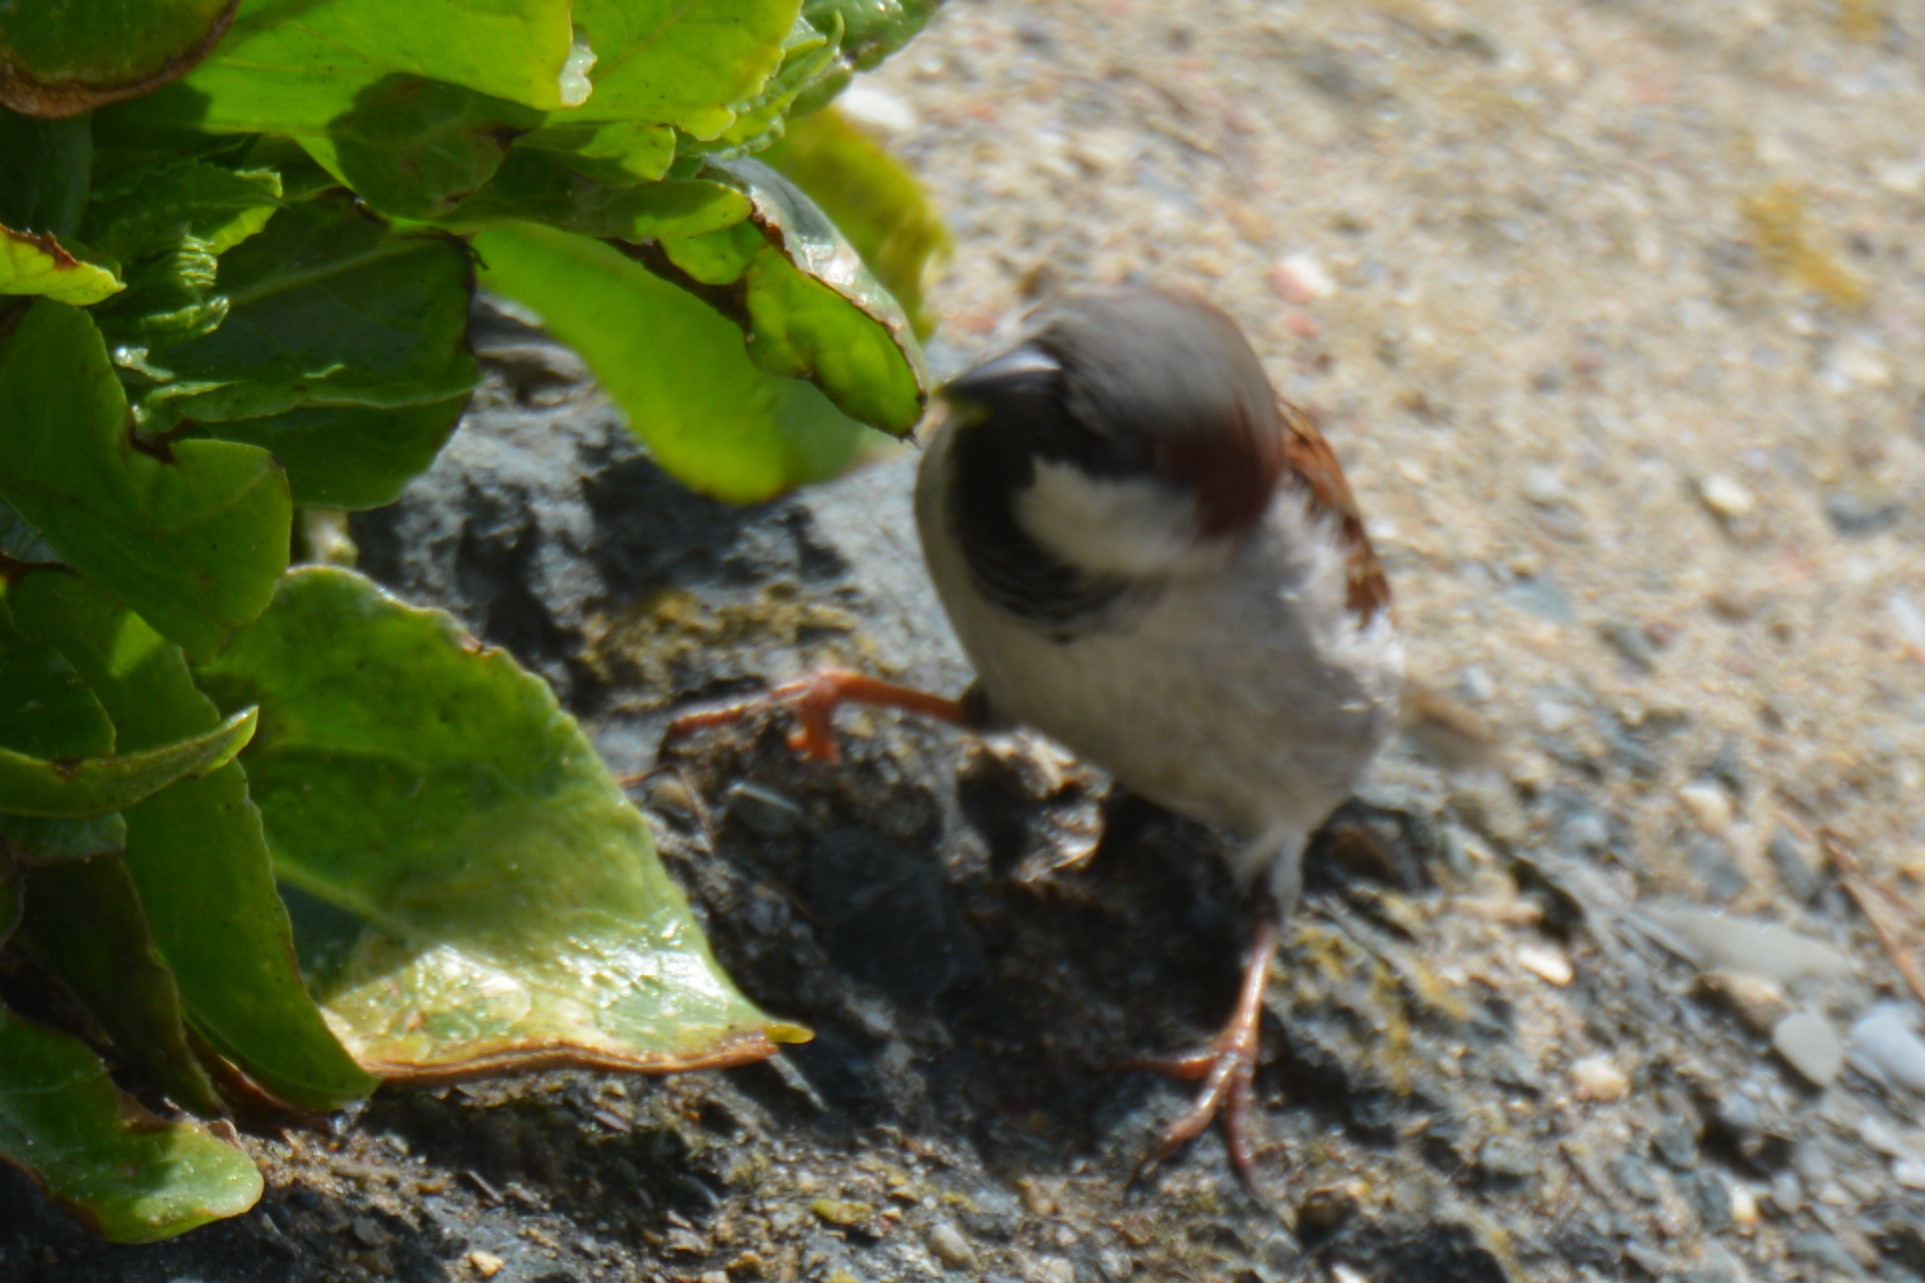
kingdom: Animalia
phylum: Chordata
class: Aves
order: Passeriformes
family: Passeridae
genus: Passer
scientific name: Passer domesticus
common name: House sparrow
